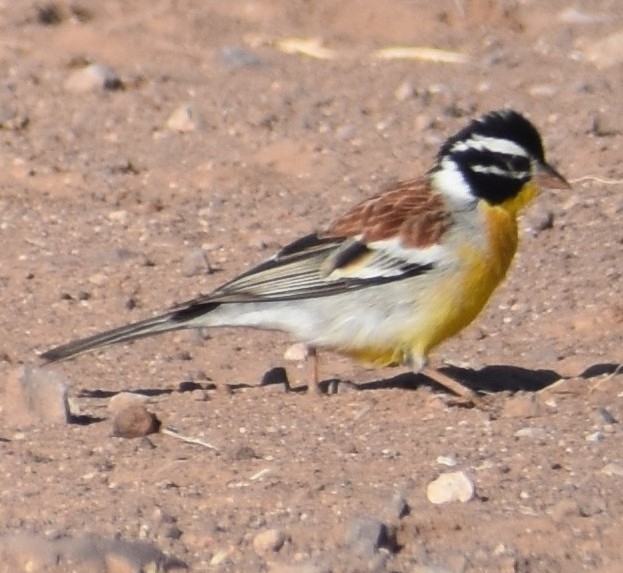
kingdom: Animalia
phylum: Chordata
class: Aves
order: Passeriformes
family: Emberizidae
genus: Emberiza
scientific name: Emberiza flaviventris
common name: Golden-breasted bunting
